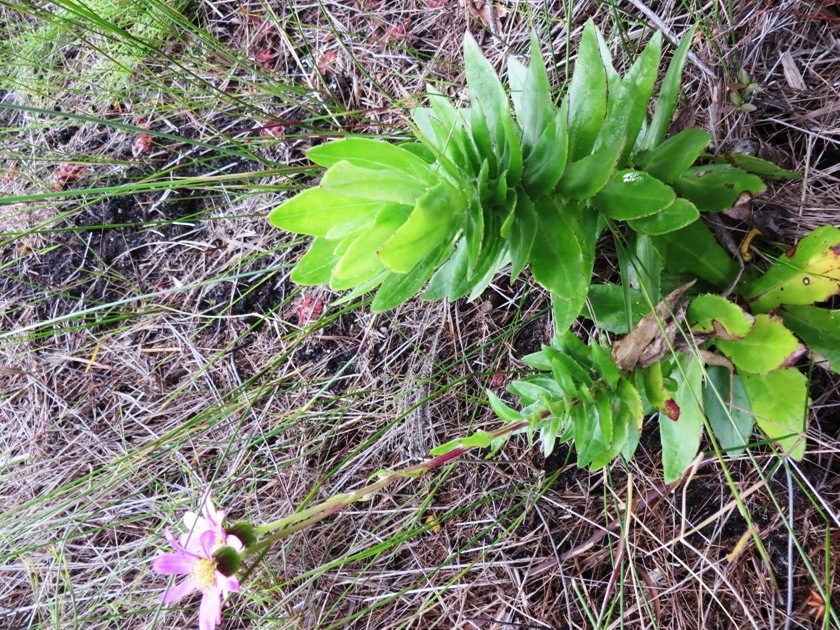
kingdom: Plantae
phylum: Tracheophyta
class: Magnoliopsida
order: Asterales
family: Asteraceae
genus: Senecio
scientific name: Senecio speciosissimus
